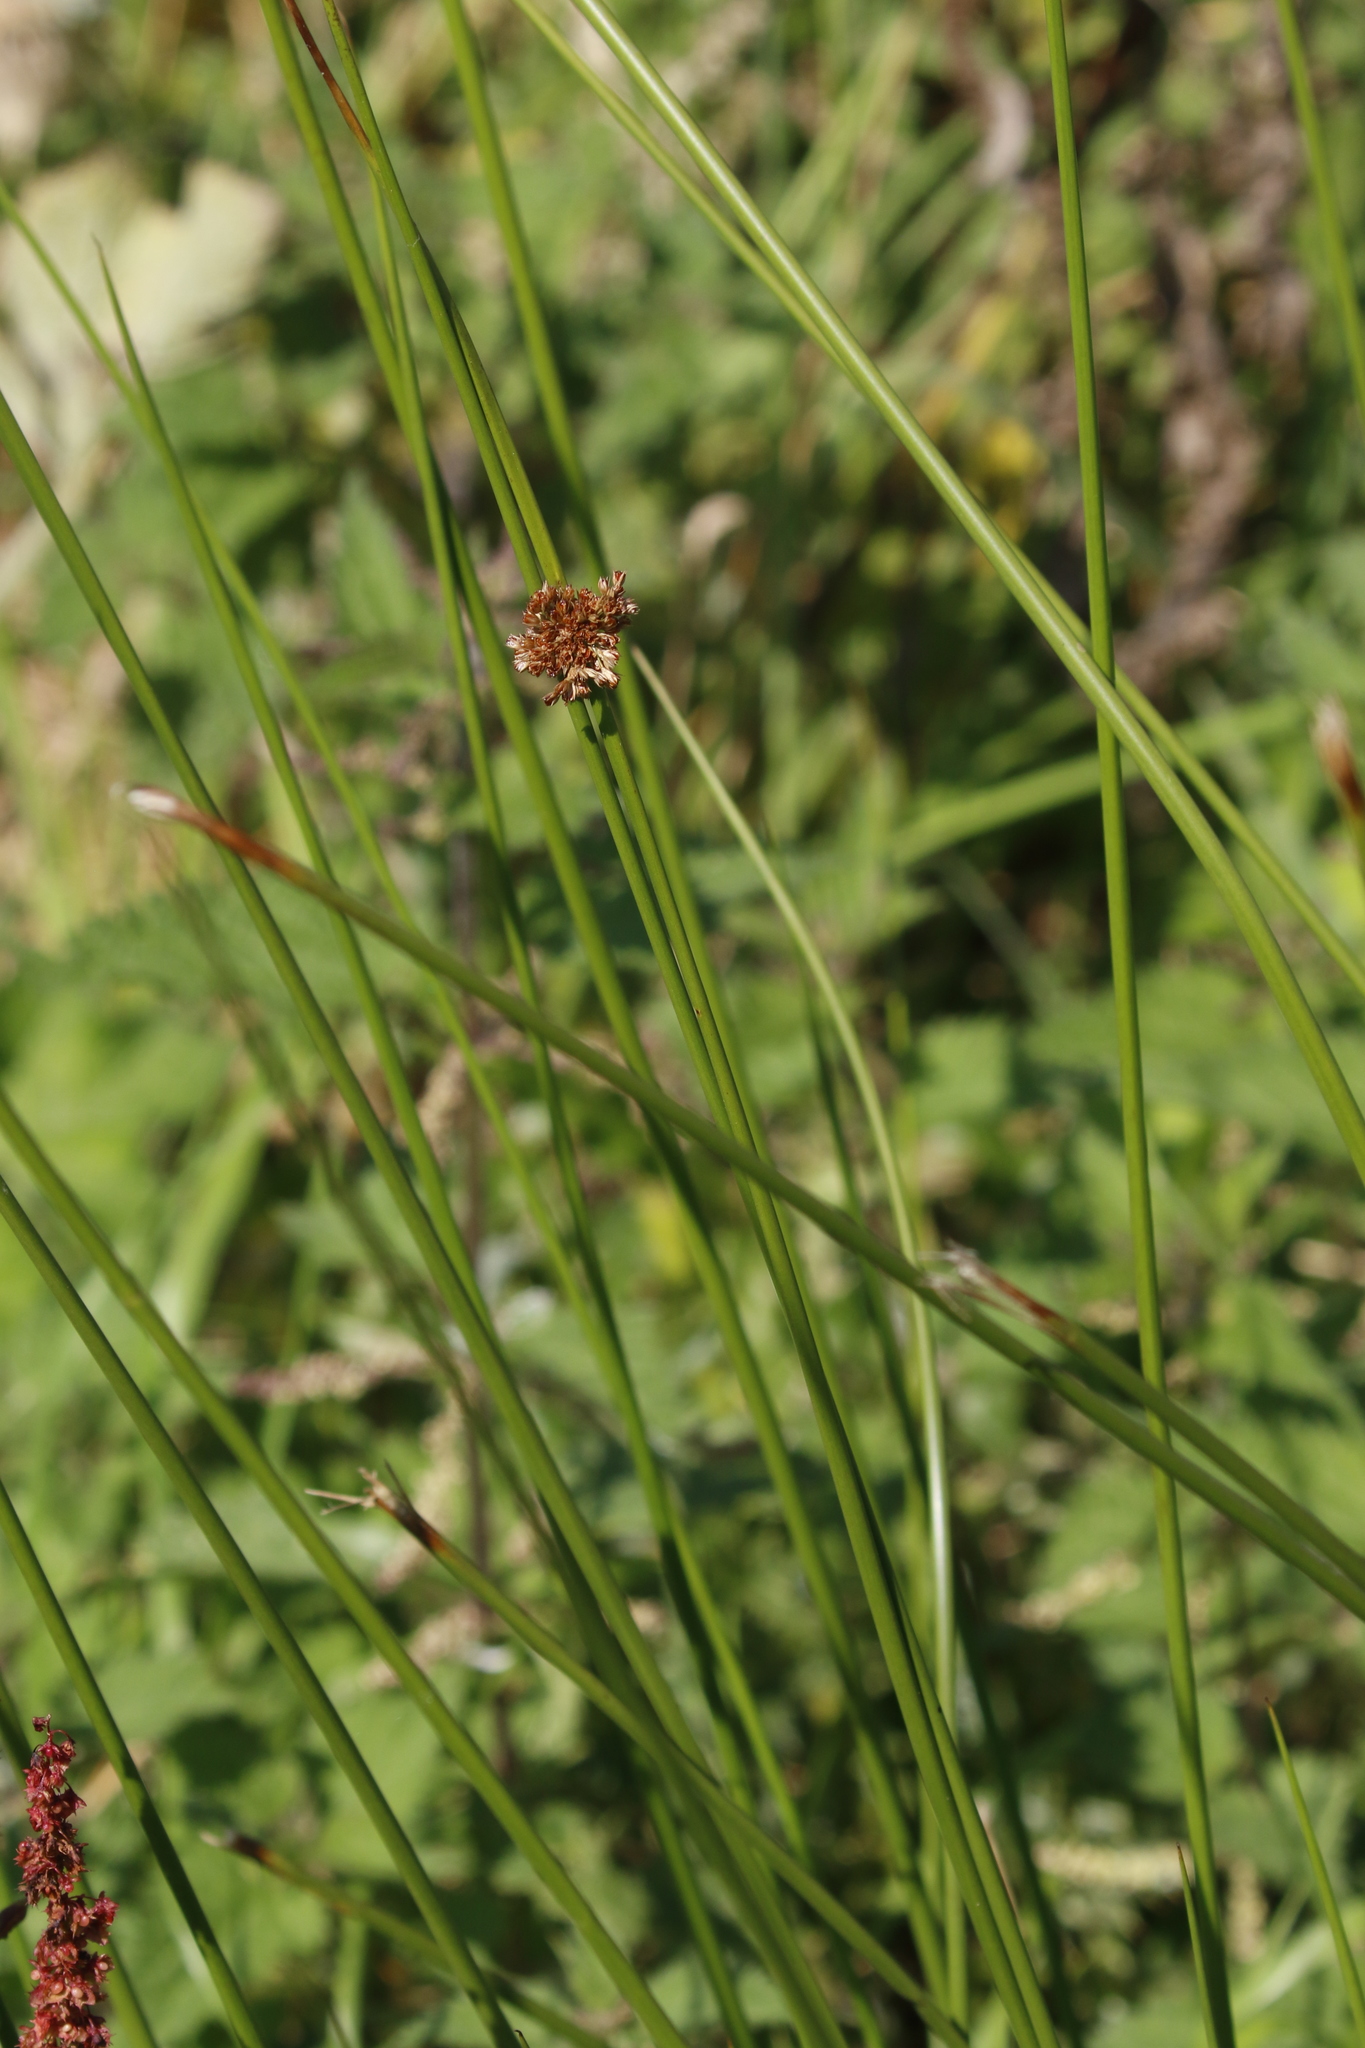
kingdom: Plantae
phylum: Tracheophyta
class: Liliopsida
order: Poales
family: Juncaceae
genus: Juncus
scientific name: Juncus effusus
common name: Soft rush
